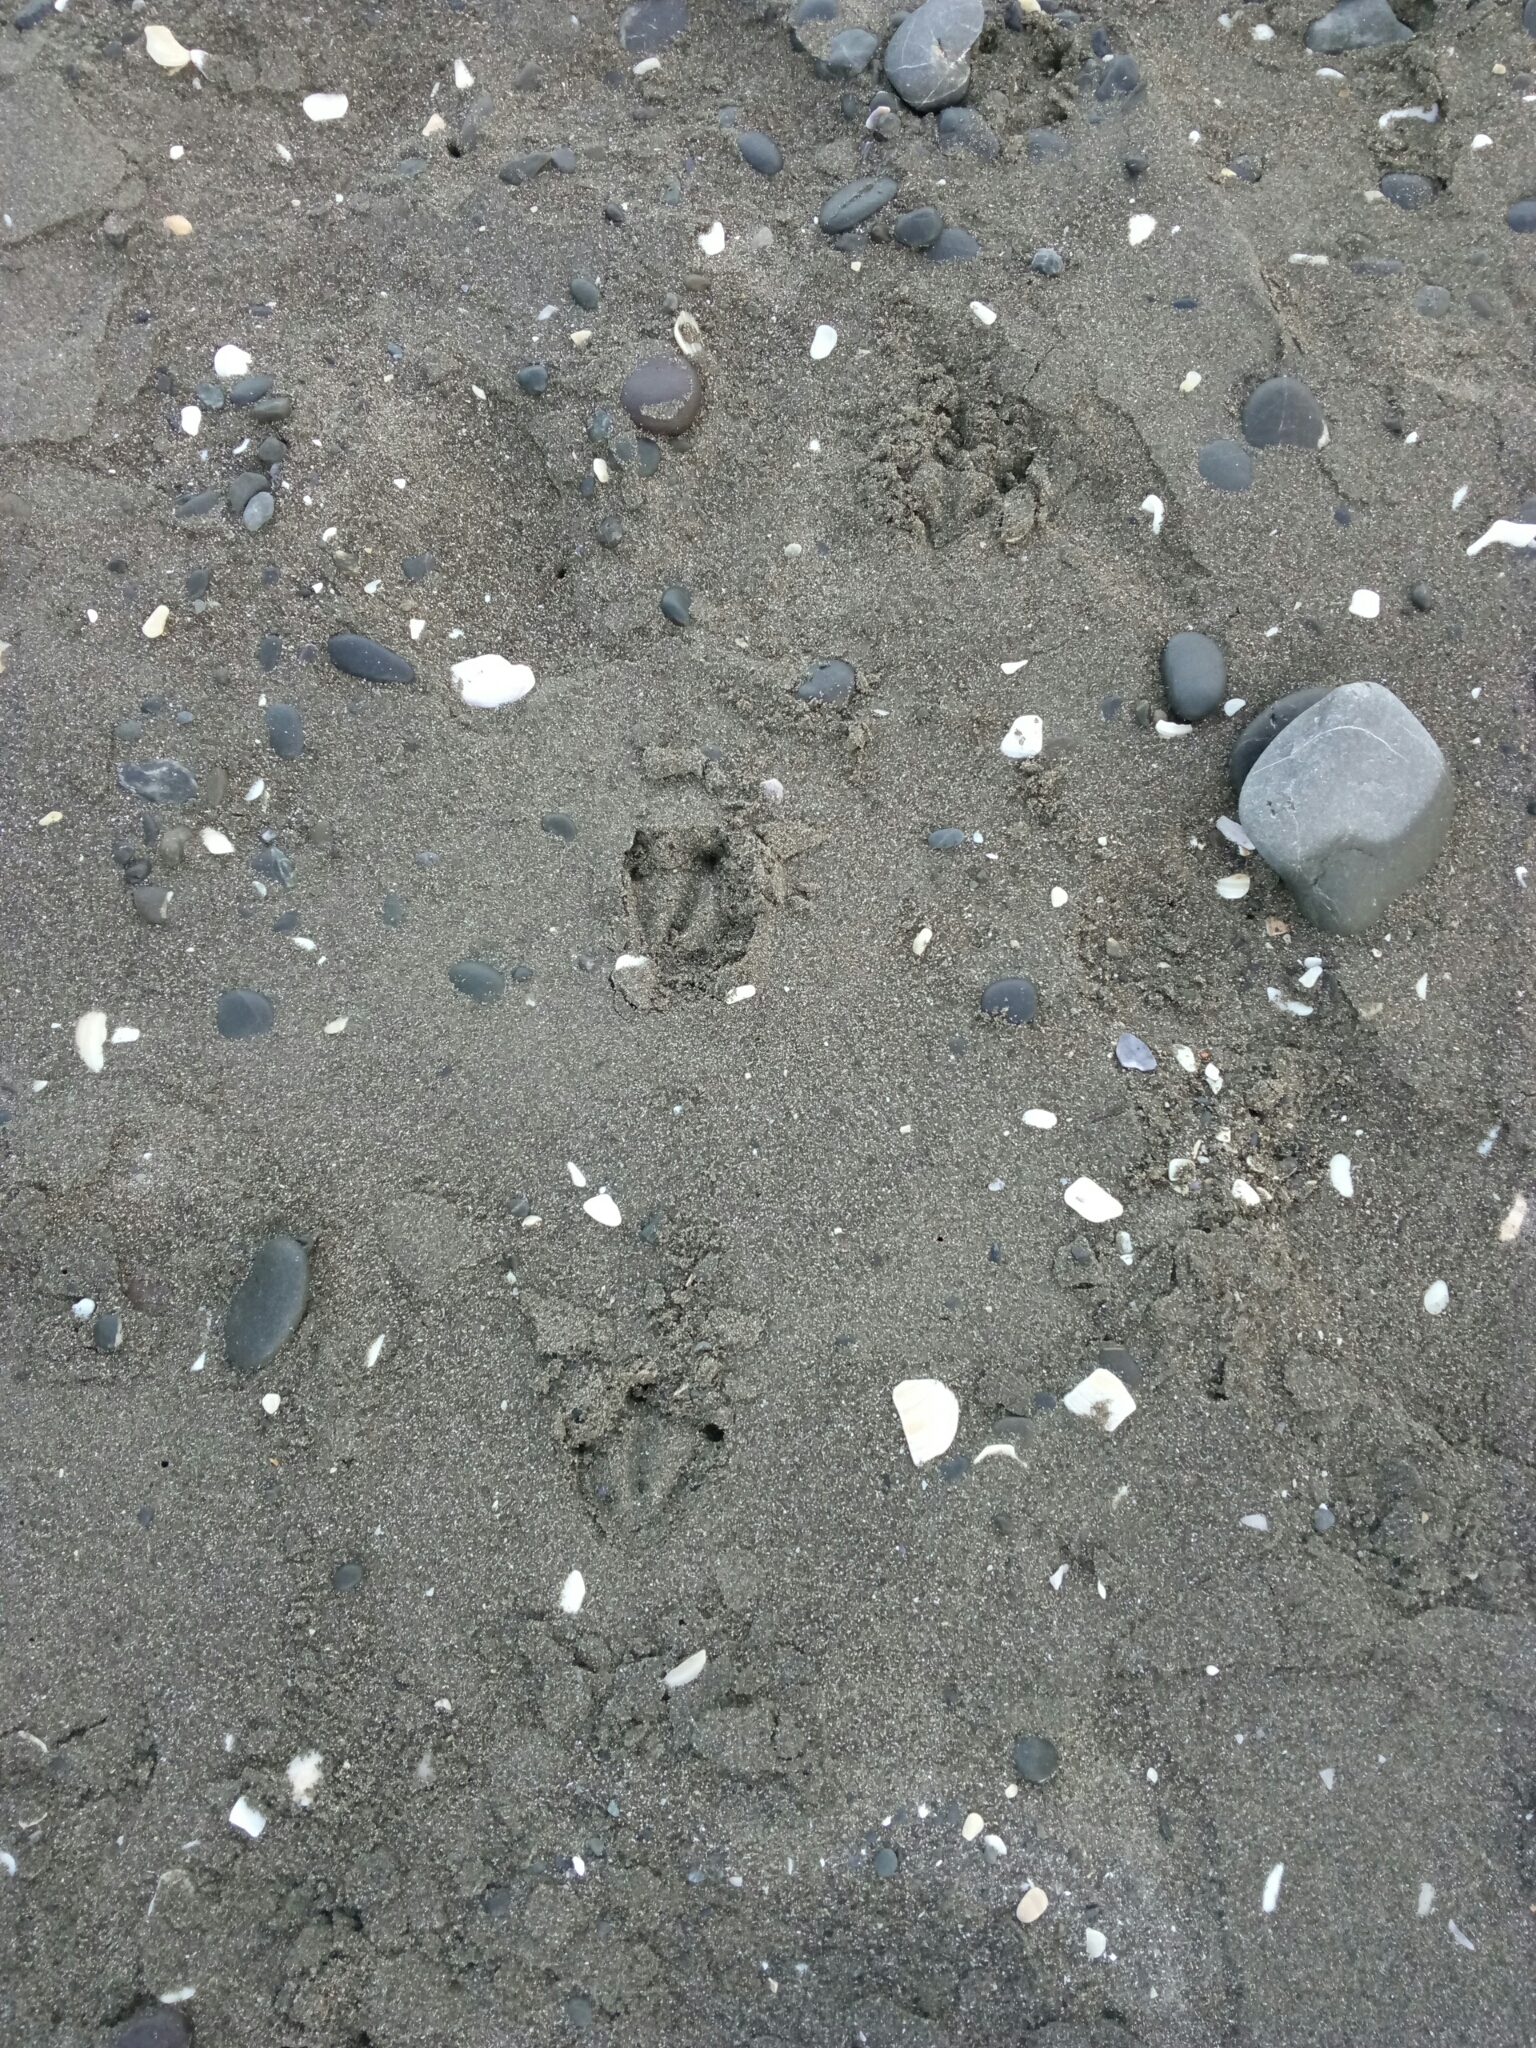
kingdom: Animalia
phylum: Chordata
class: Aves
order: Sphenisciformes
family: Spheniscidae
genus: Eudyptula
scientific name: Eudyptula minor
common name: Little penguin
